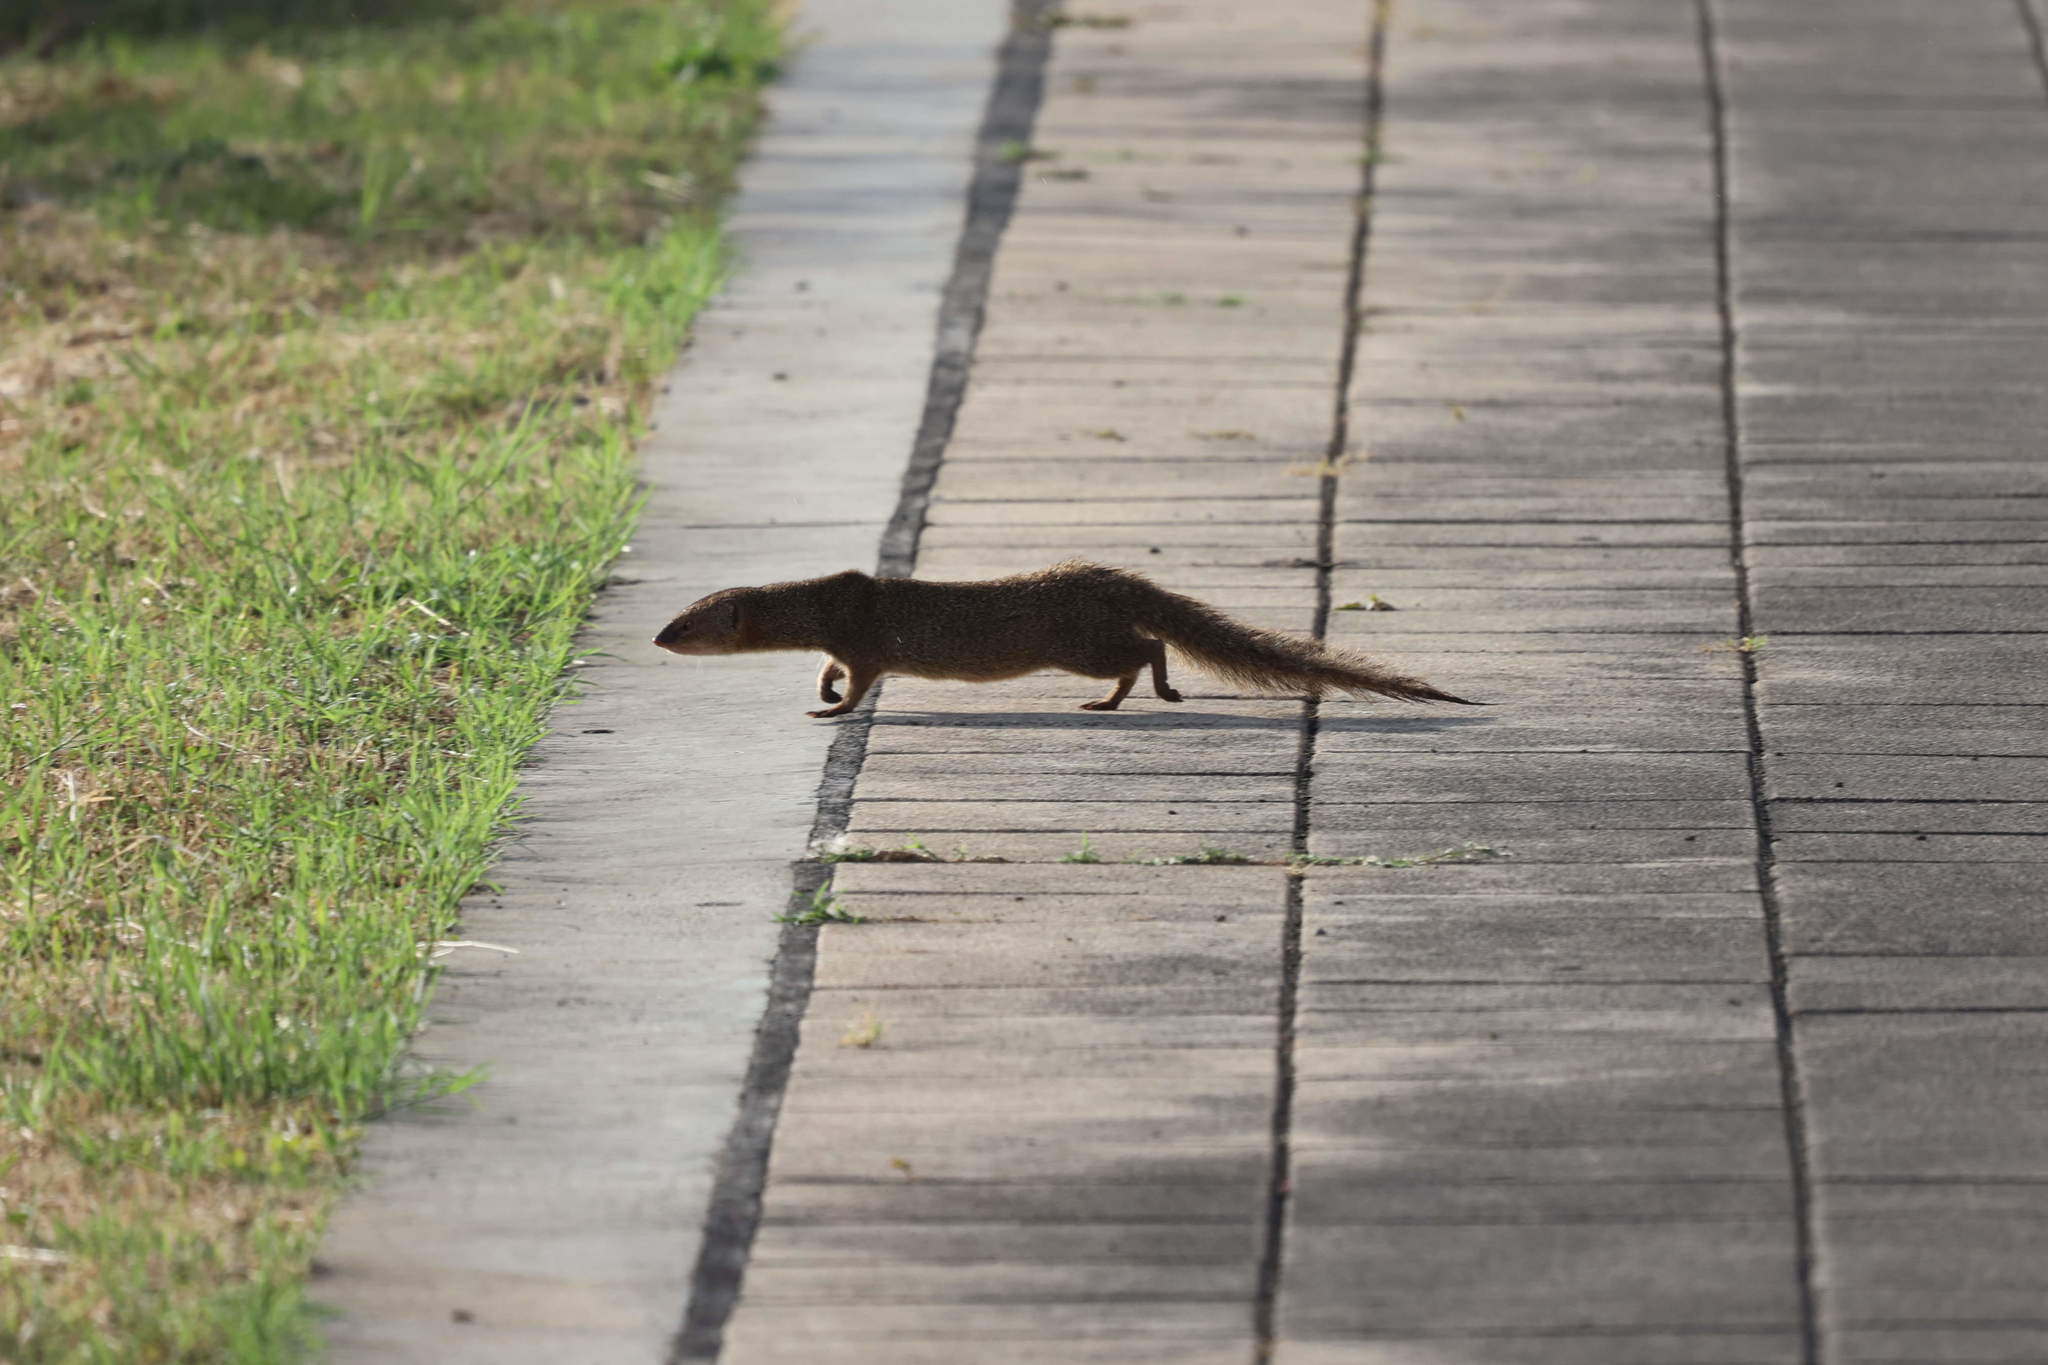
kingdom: Animalia
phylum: Chordata
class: Mammalia
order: Carnivora
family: Herpestidae
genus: Herpestes
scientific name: Herpestes javanicus
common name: Small asian mongoose
